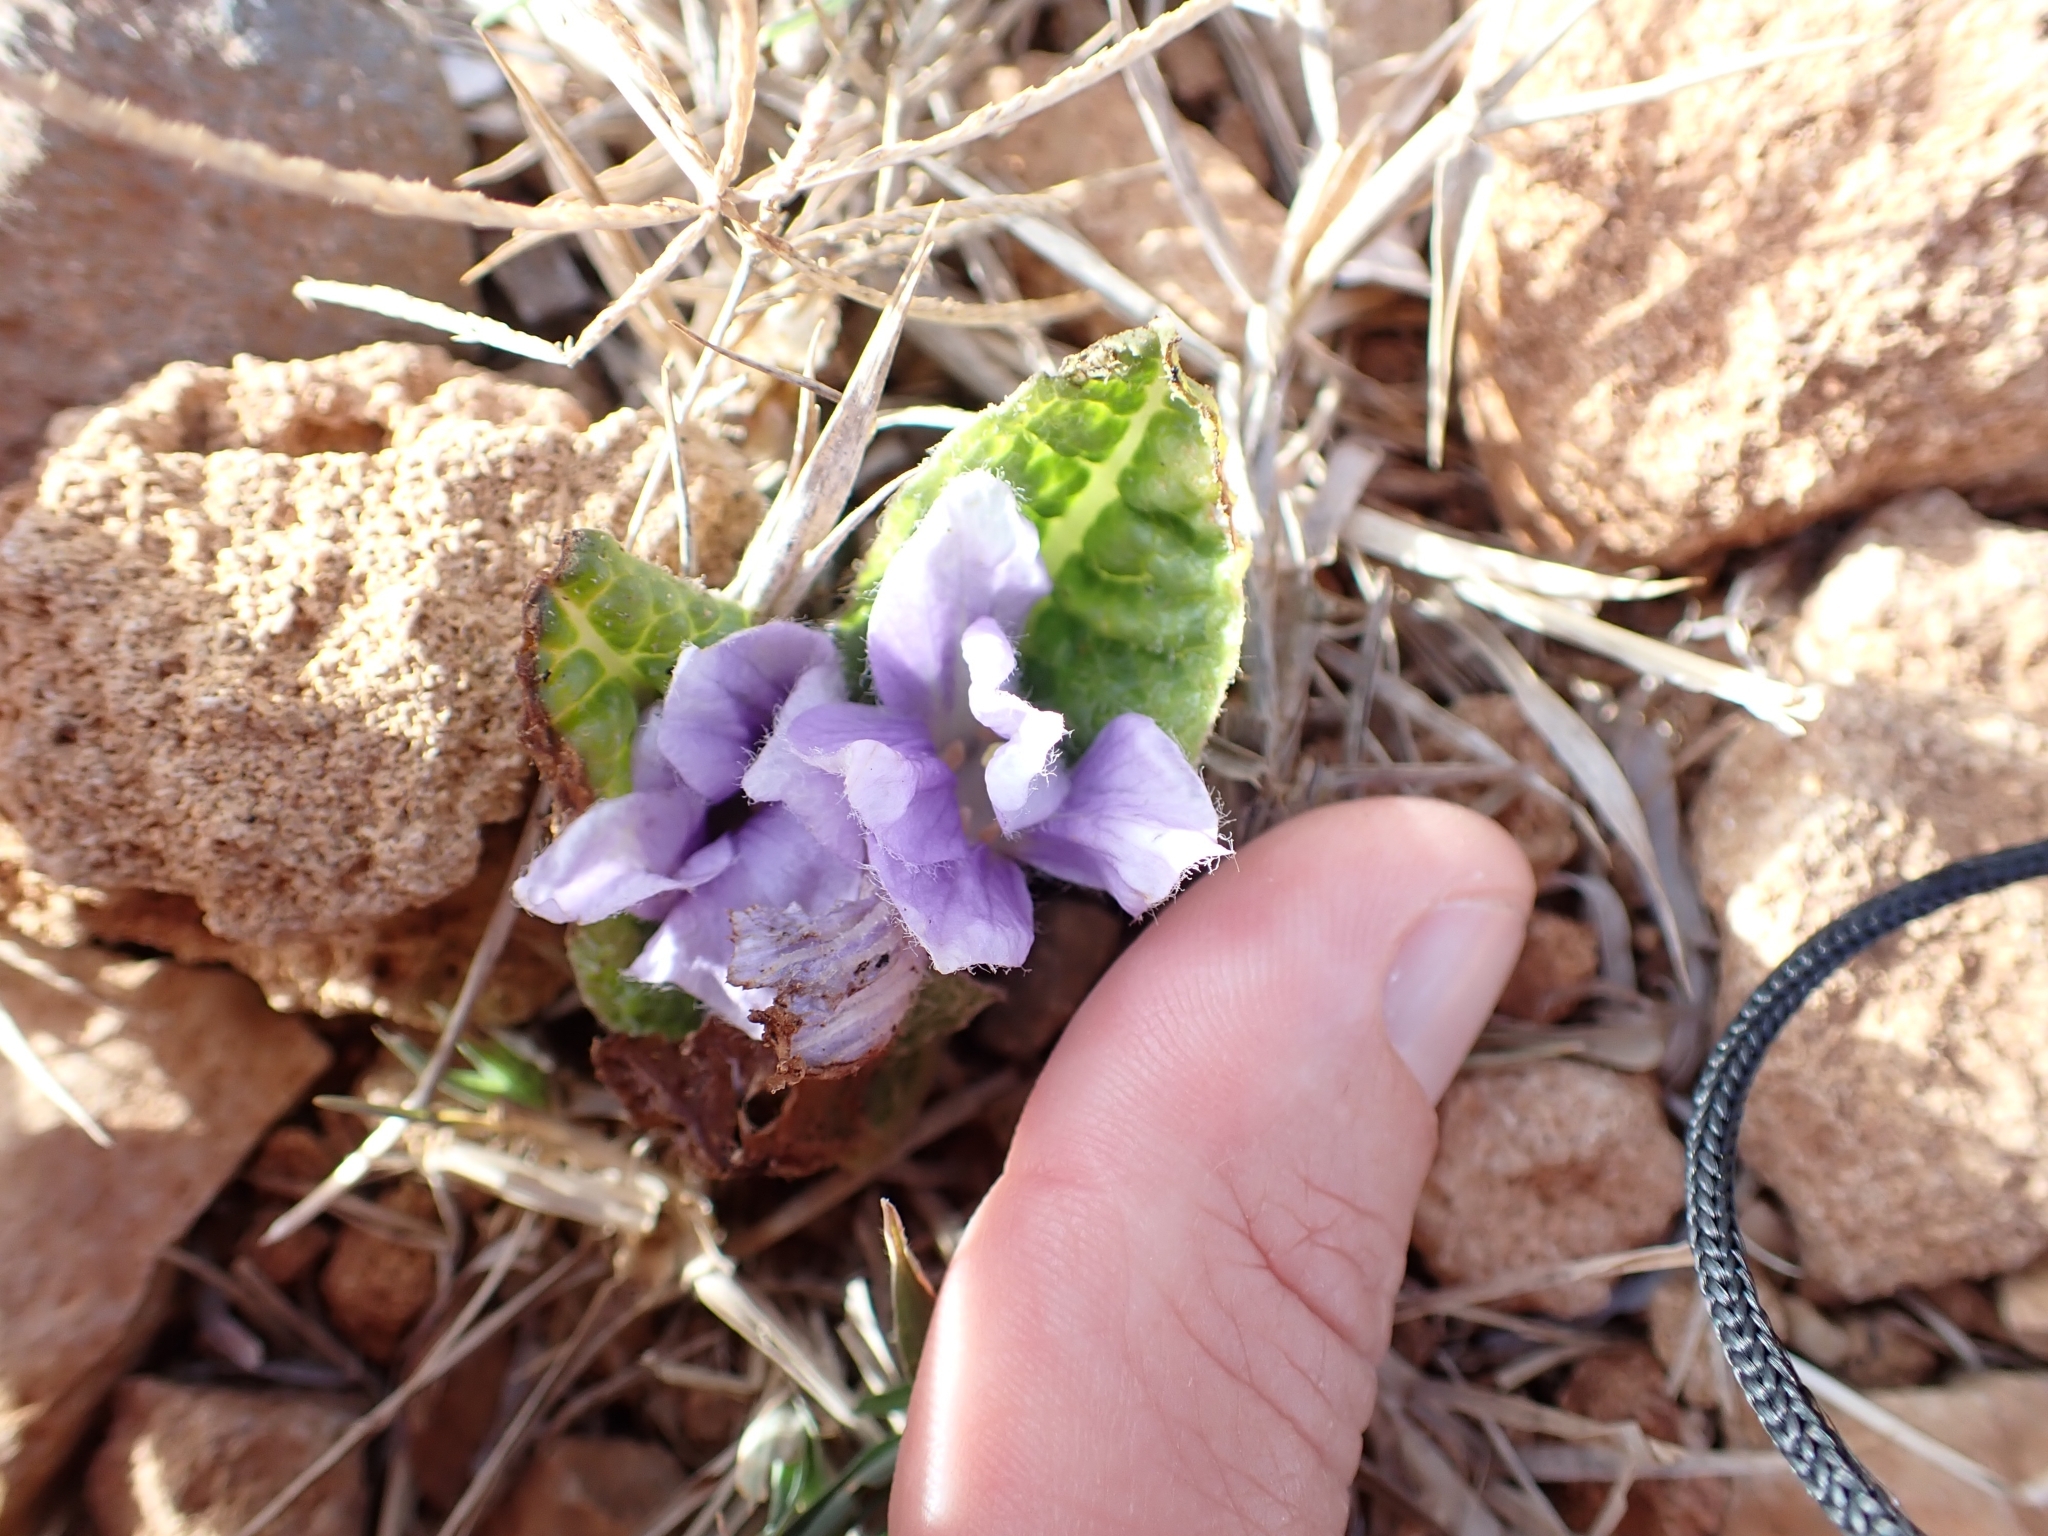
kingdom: Plantae
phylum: Tracheophyta
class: Magnoliopsida
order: Solanales
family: Solanaceae
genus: Mandragora
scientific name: Mandragora officinarum
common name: Mandrake
